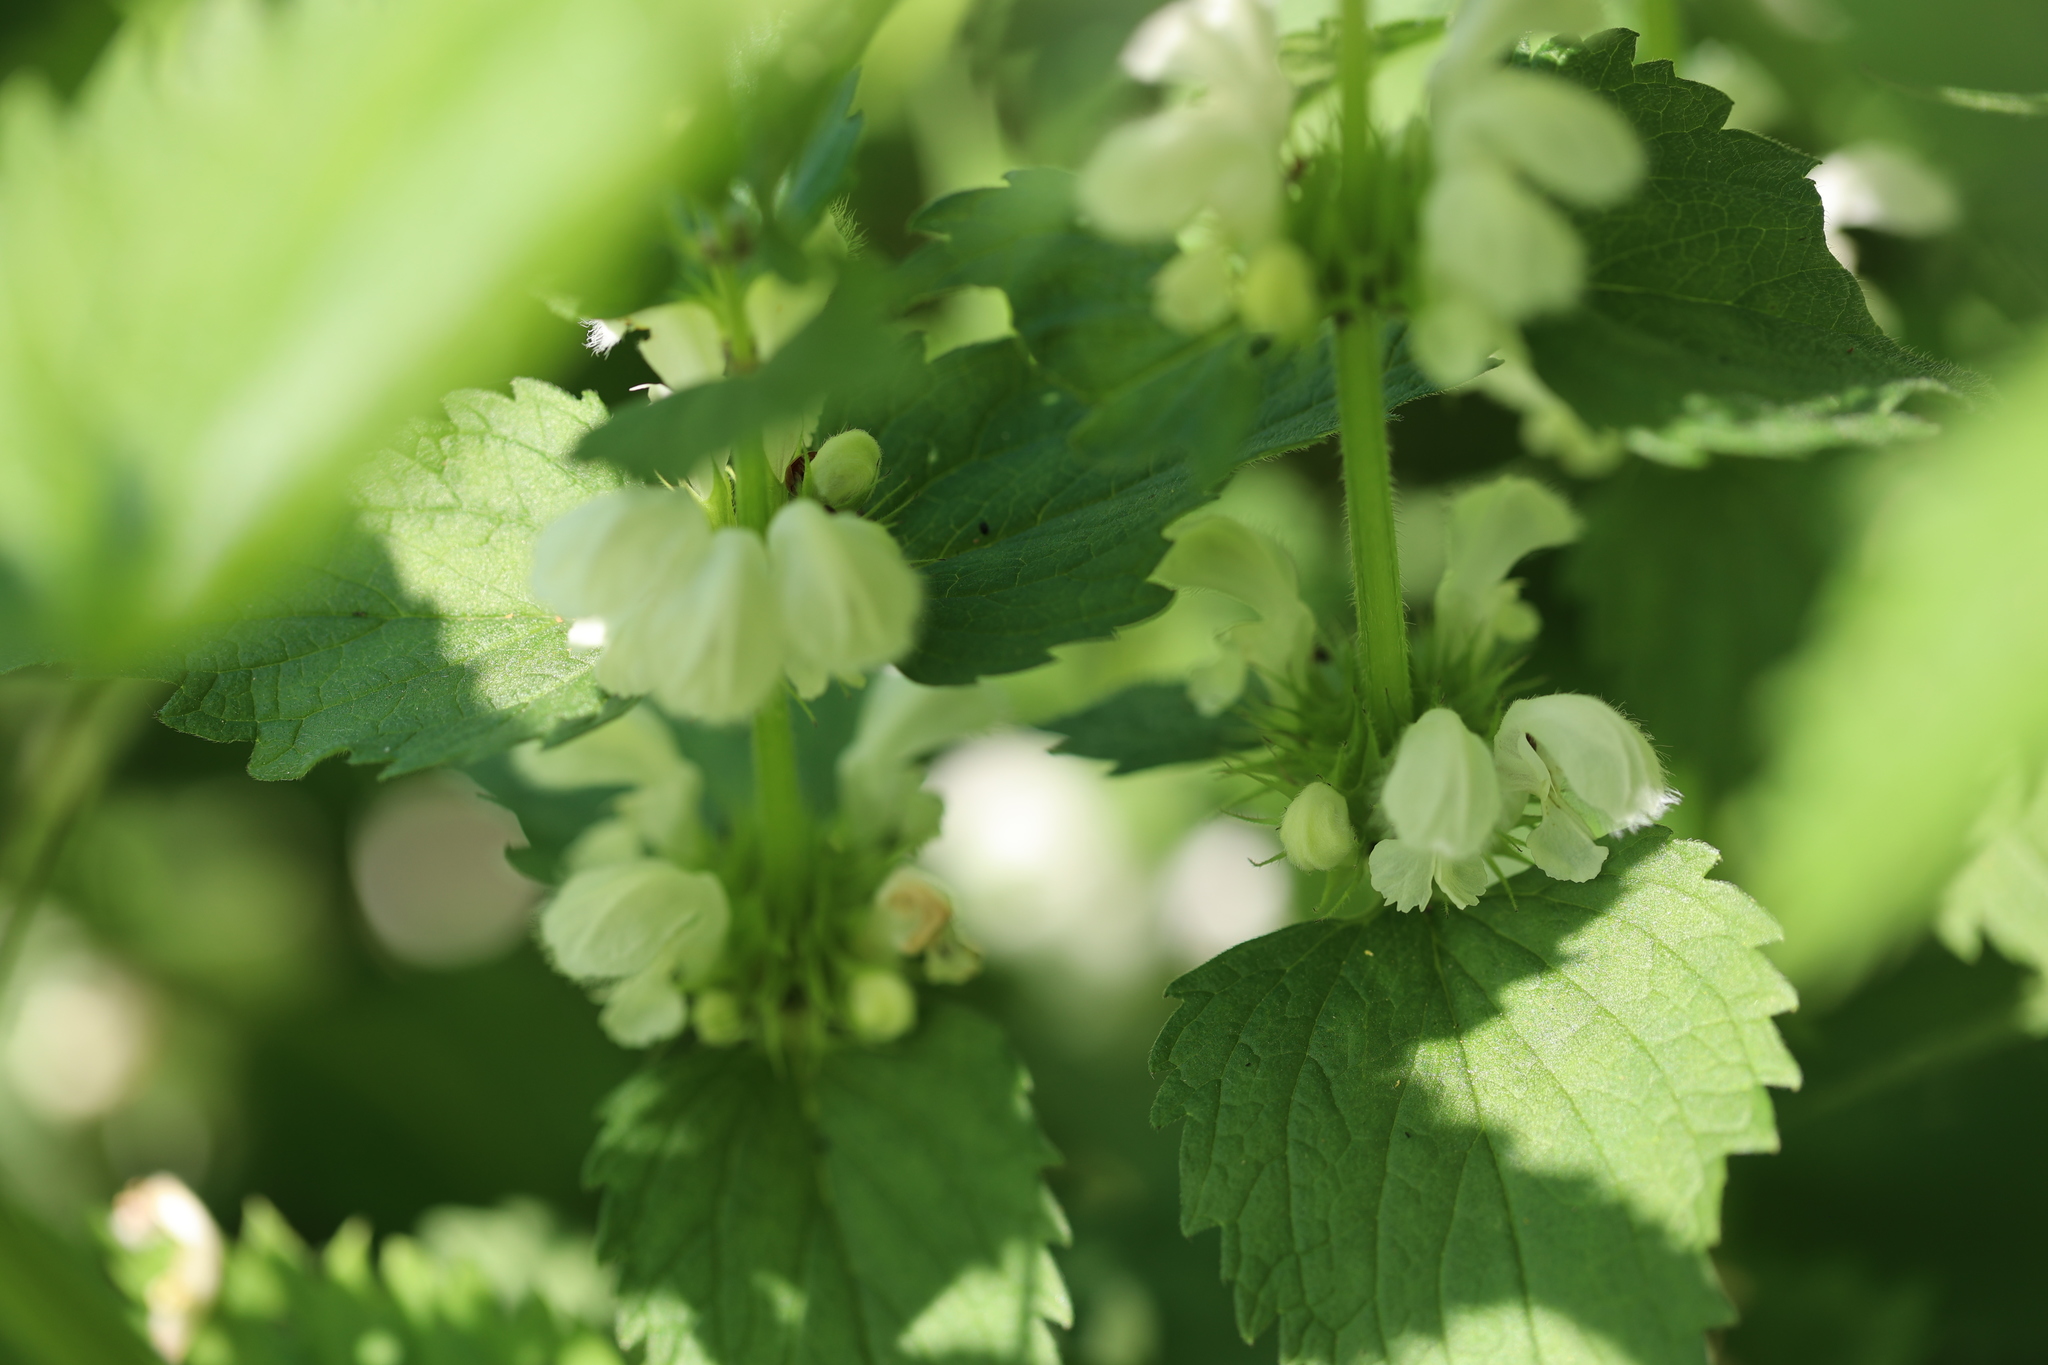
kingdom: Plantae
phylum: Tracheophyta
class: Magnoliopsida
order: Lamiales
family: Lamiaceae
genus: Lamium
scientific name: Lamium album
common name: White dead-nettle
